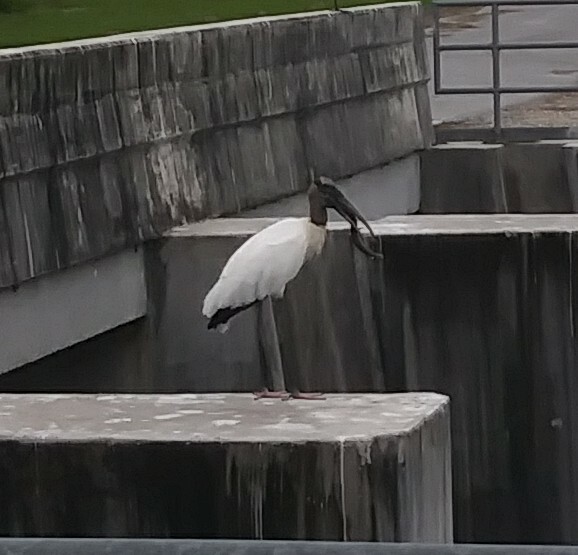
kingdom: Animalia
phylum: Chordata
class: Aves
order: Ciconiiformes
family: Ciconiidae
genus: Mycteria
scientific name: Mycteria americana
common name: Wood stork
